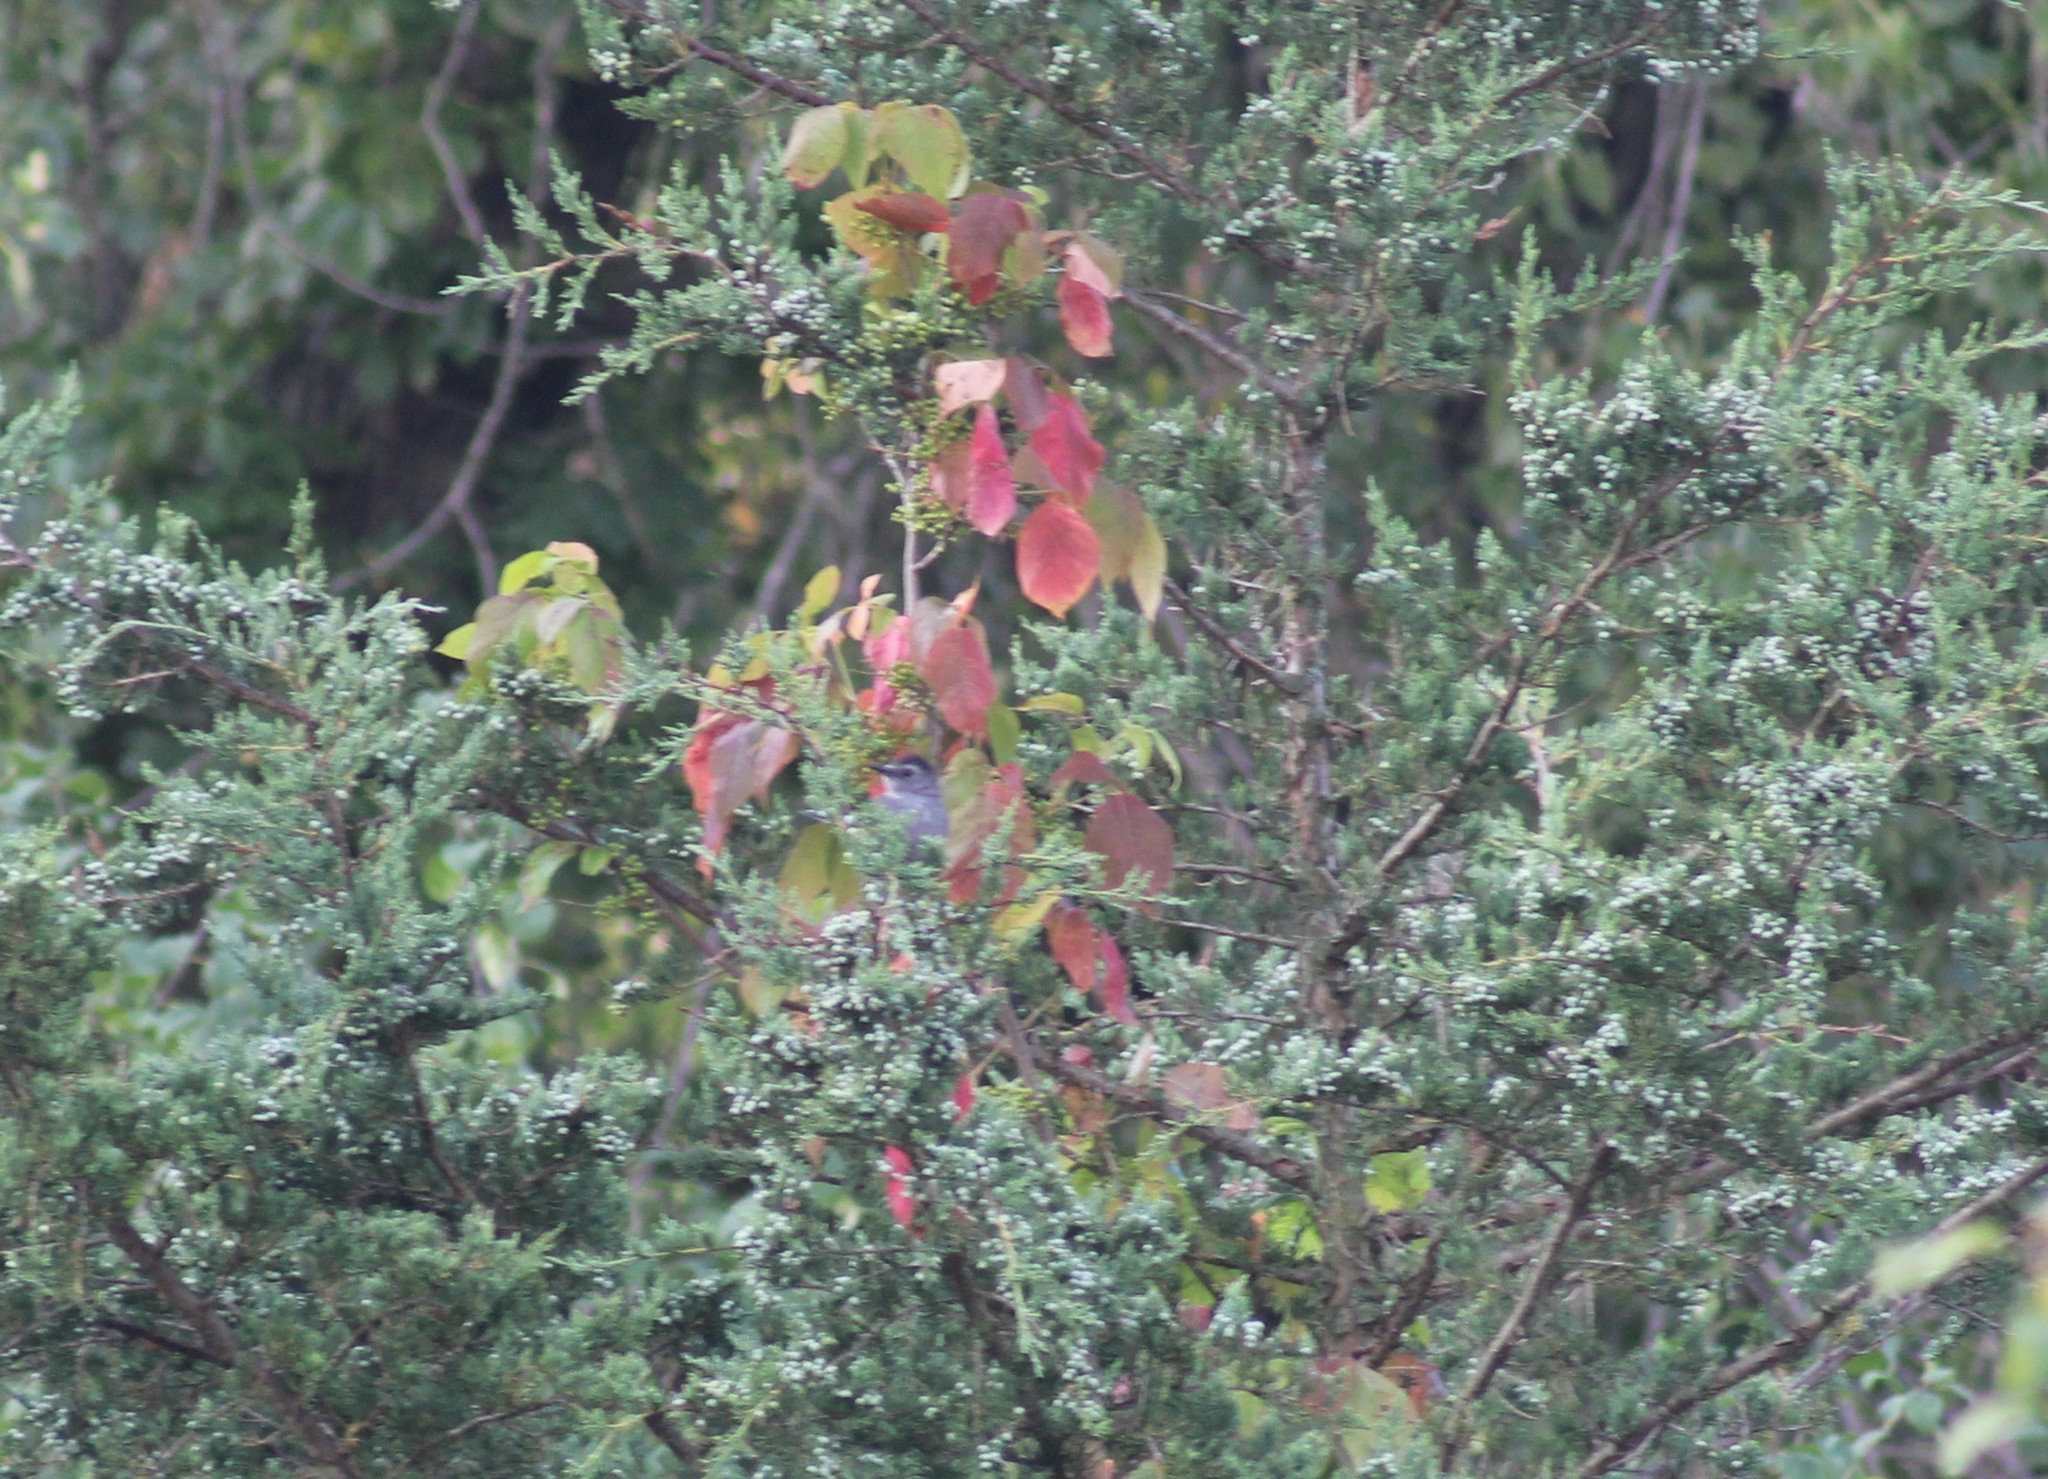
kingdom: Animalia
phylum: Chordata
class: Aves
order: Passeriformes
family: Mimidae
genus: Dumetella
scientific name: Dumetella carolinensis
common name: Gray catbird
